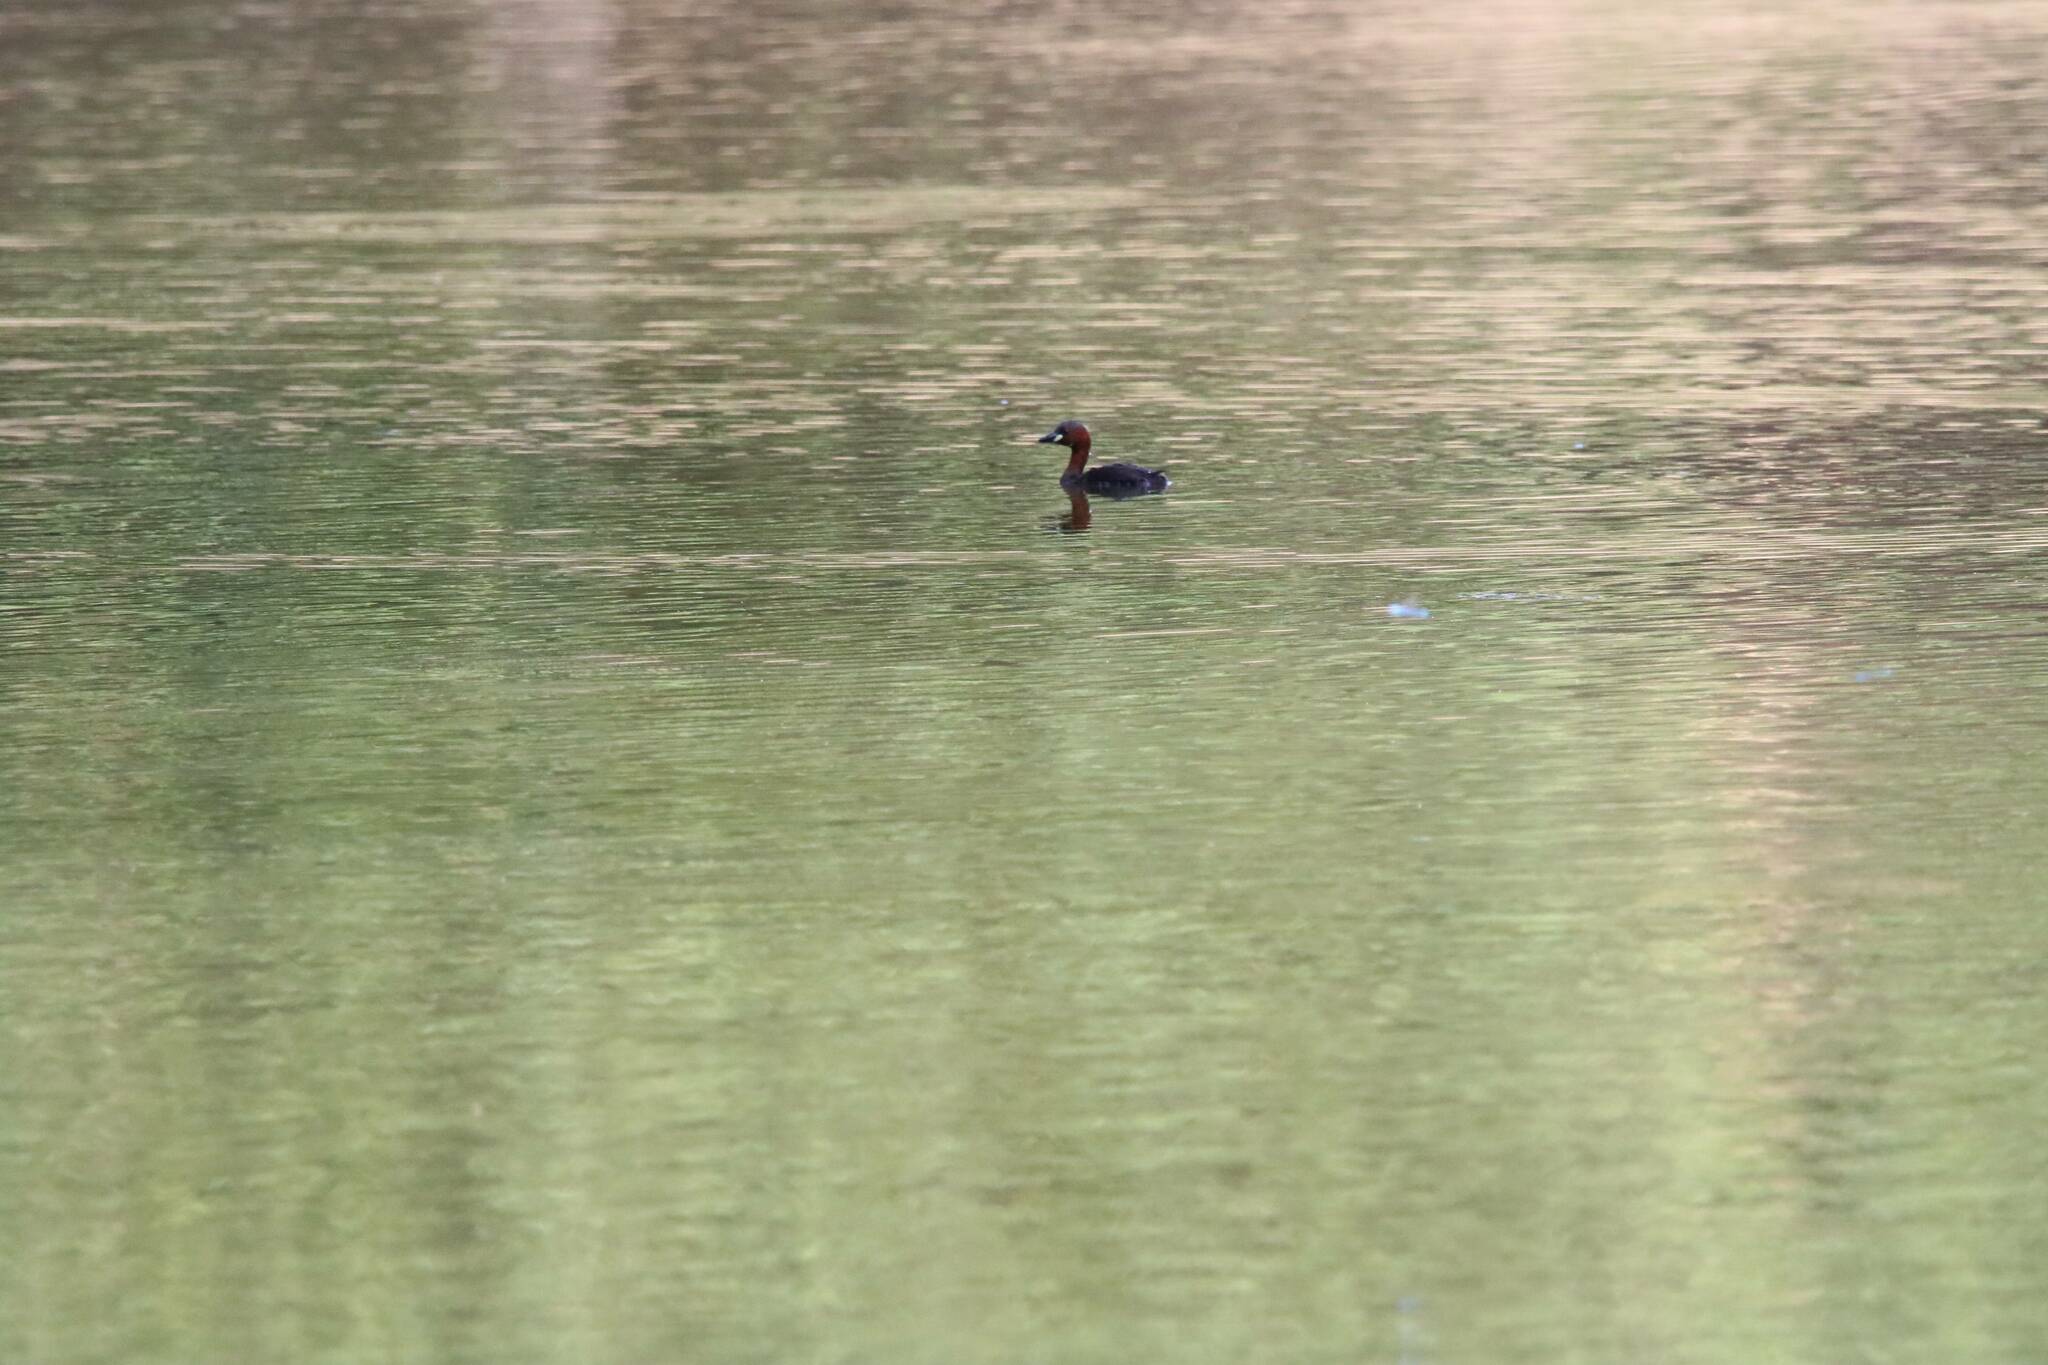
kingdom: Animalia
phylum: Chordata
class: Aves
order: Podicipediformes
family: Podicipedidae
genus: Tachybaptus
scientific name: Tachybaptus ruficollis
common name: Little grebe
